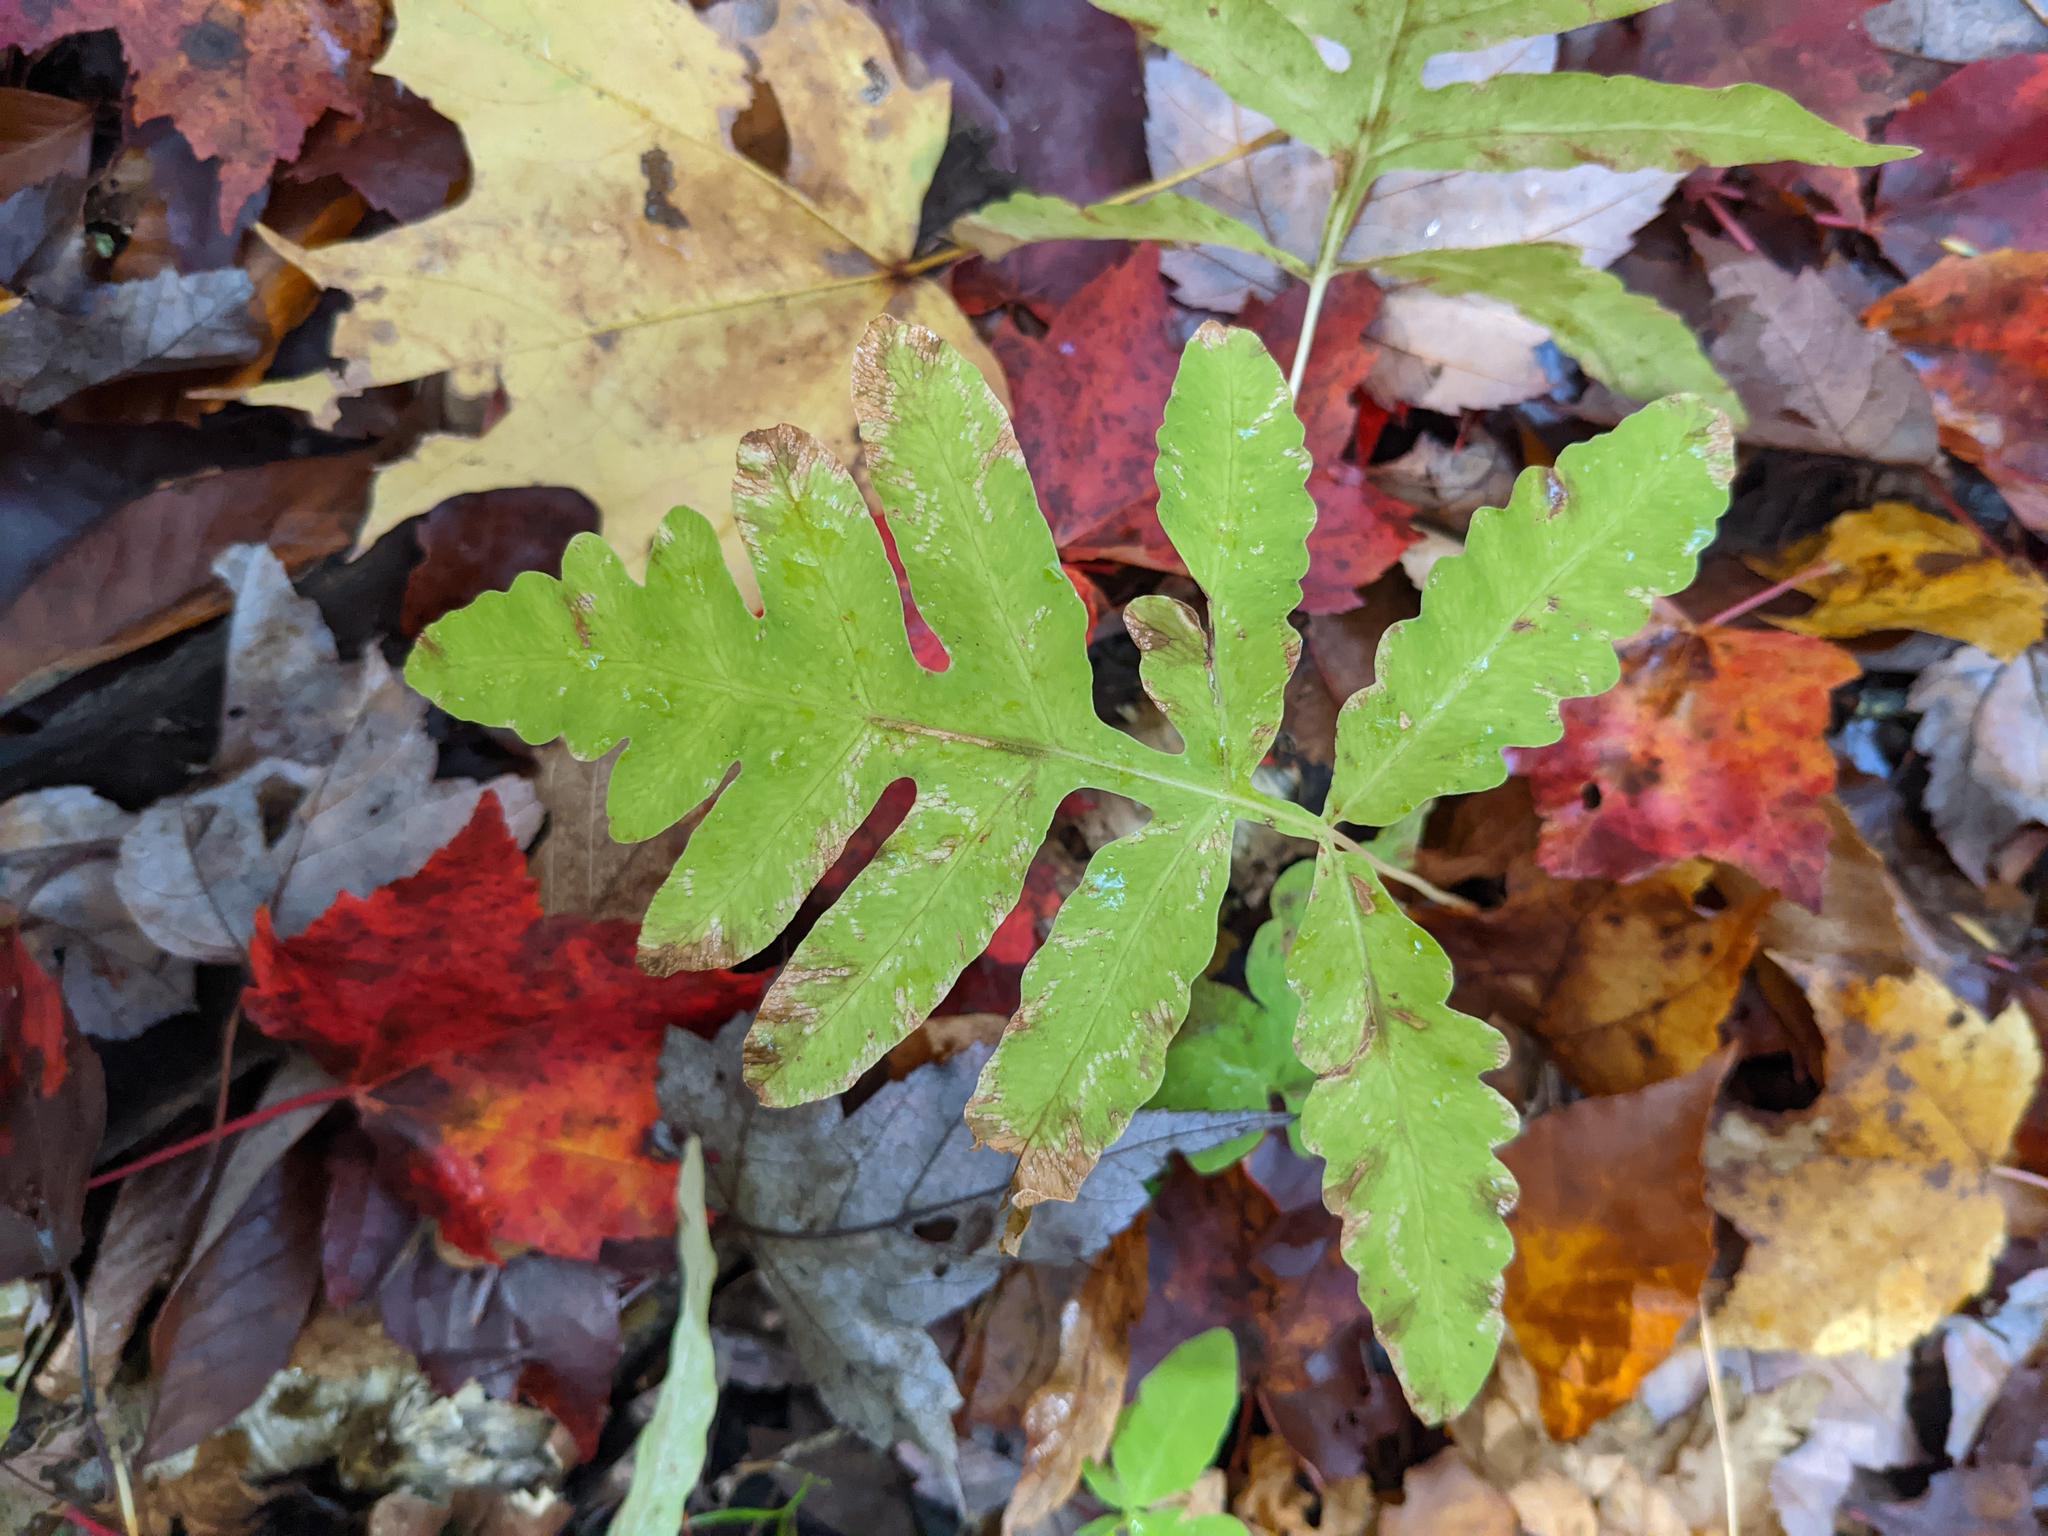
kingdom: Plantae
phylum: Tracheophyta
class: Polypodiopsida
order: Polypodiales
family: Onocleaceae
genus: Onoclea
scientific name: Onoclea sensibilis
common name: Sensitive fern
